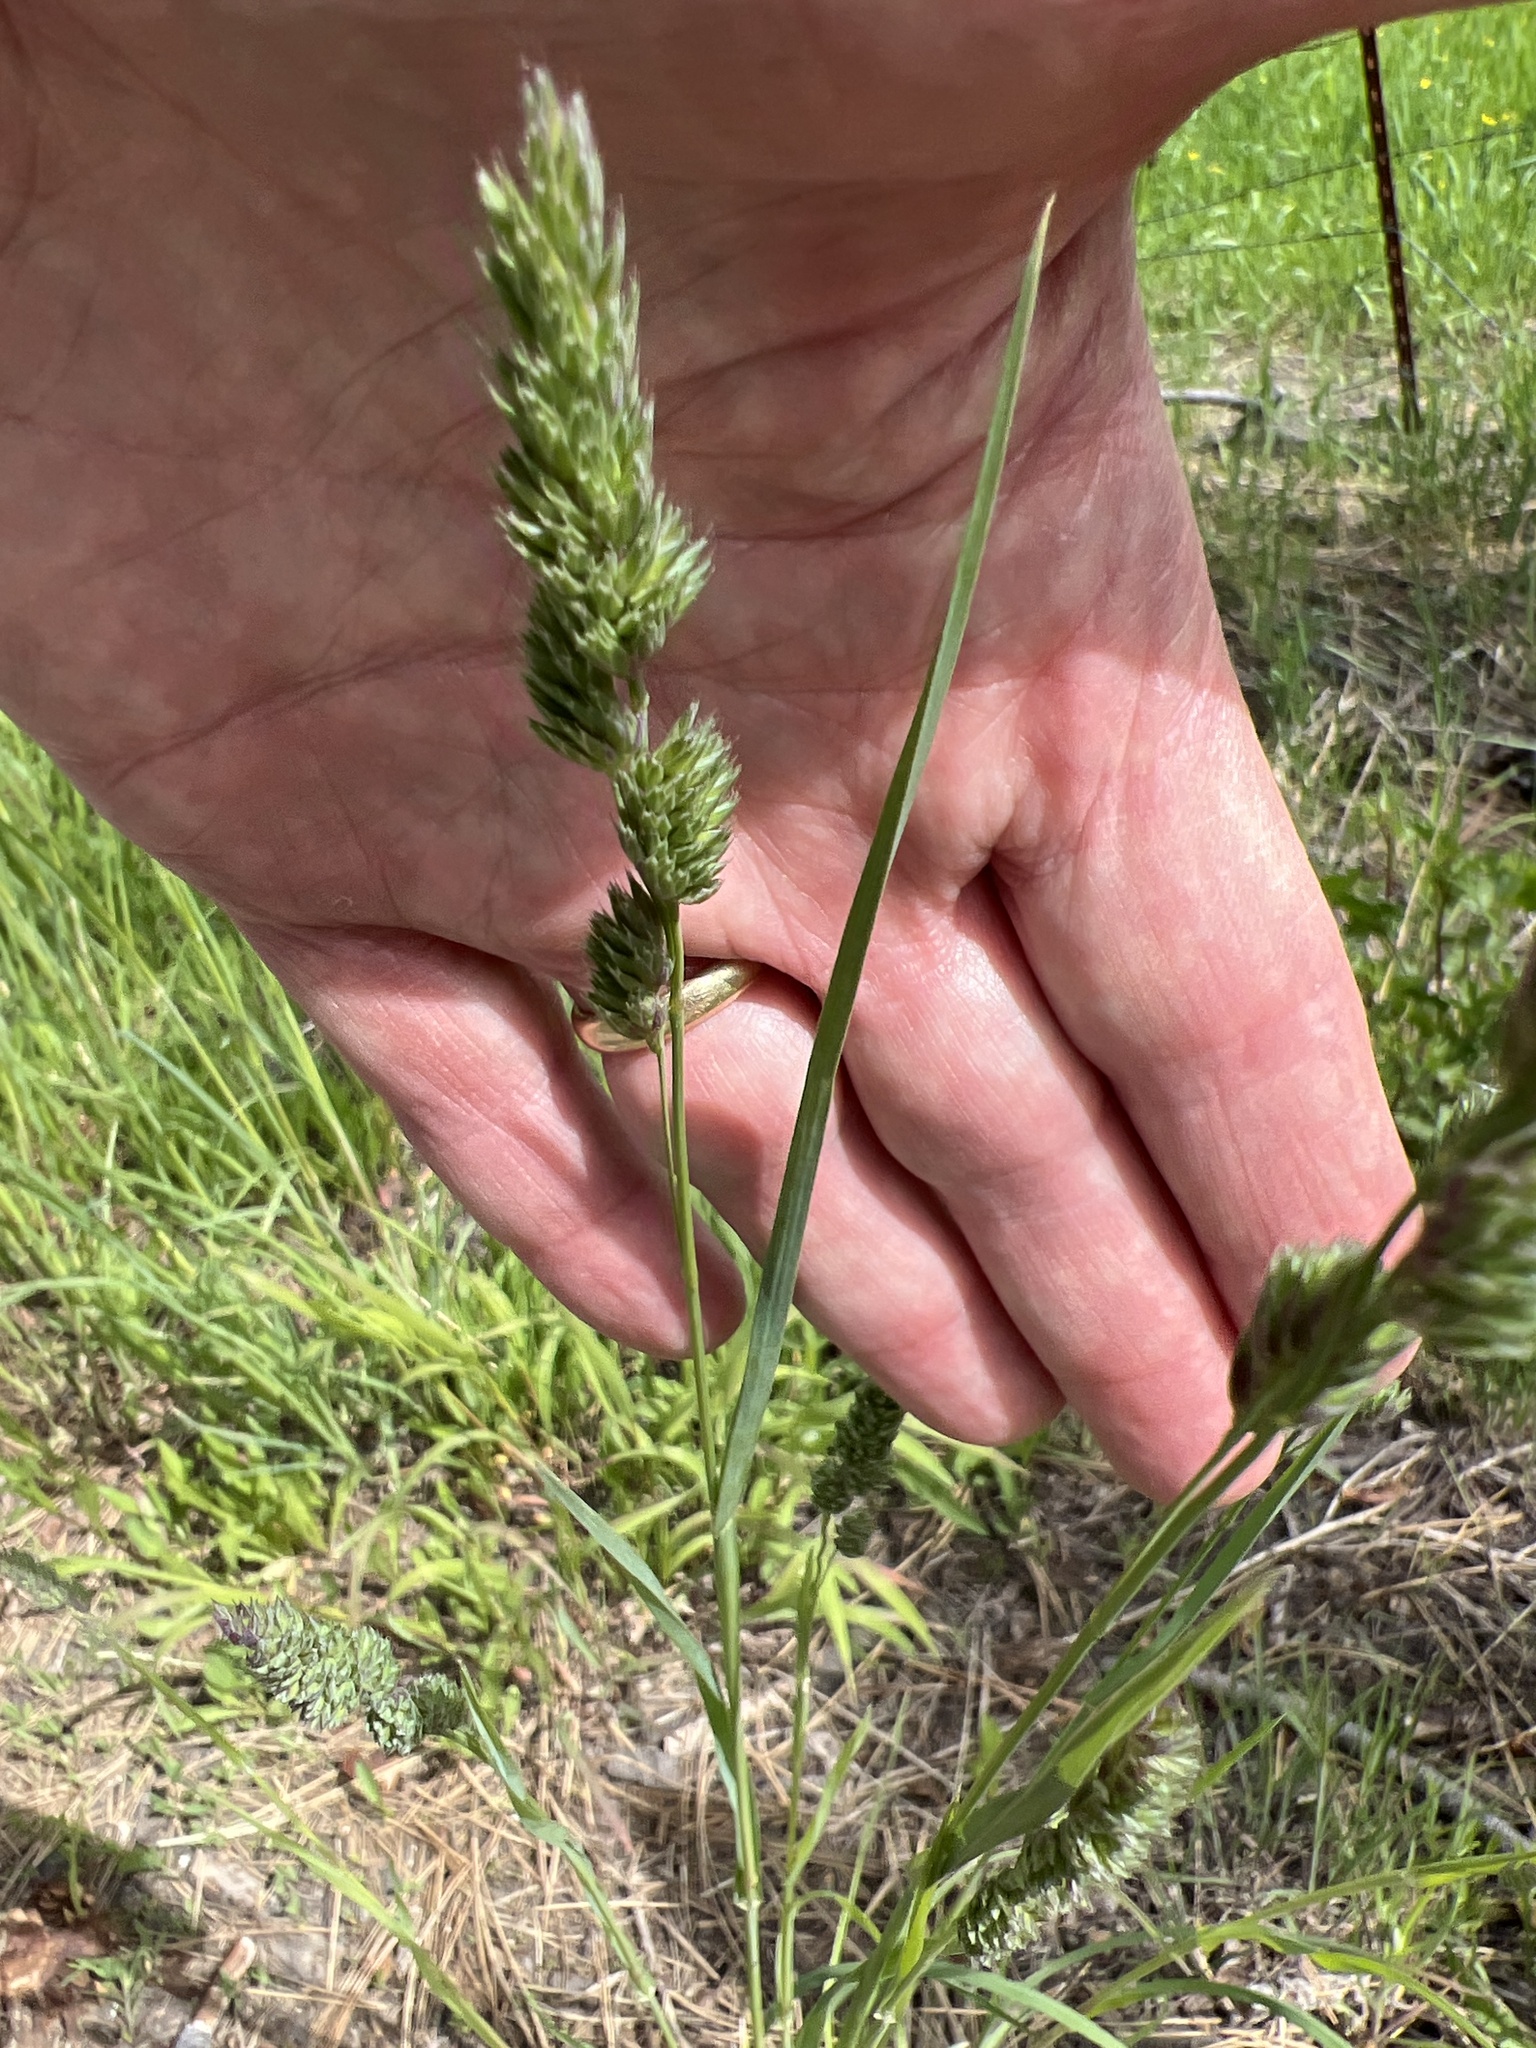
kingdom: Plantae
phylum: Tracheophyta
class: Liliopsida
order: Poales
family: Poaceae
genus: Dactylis
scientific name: Dactylis glomerata
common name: Orchardgrass
